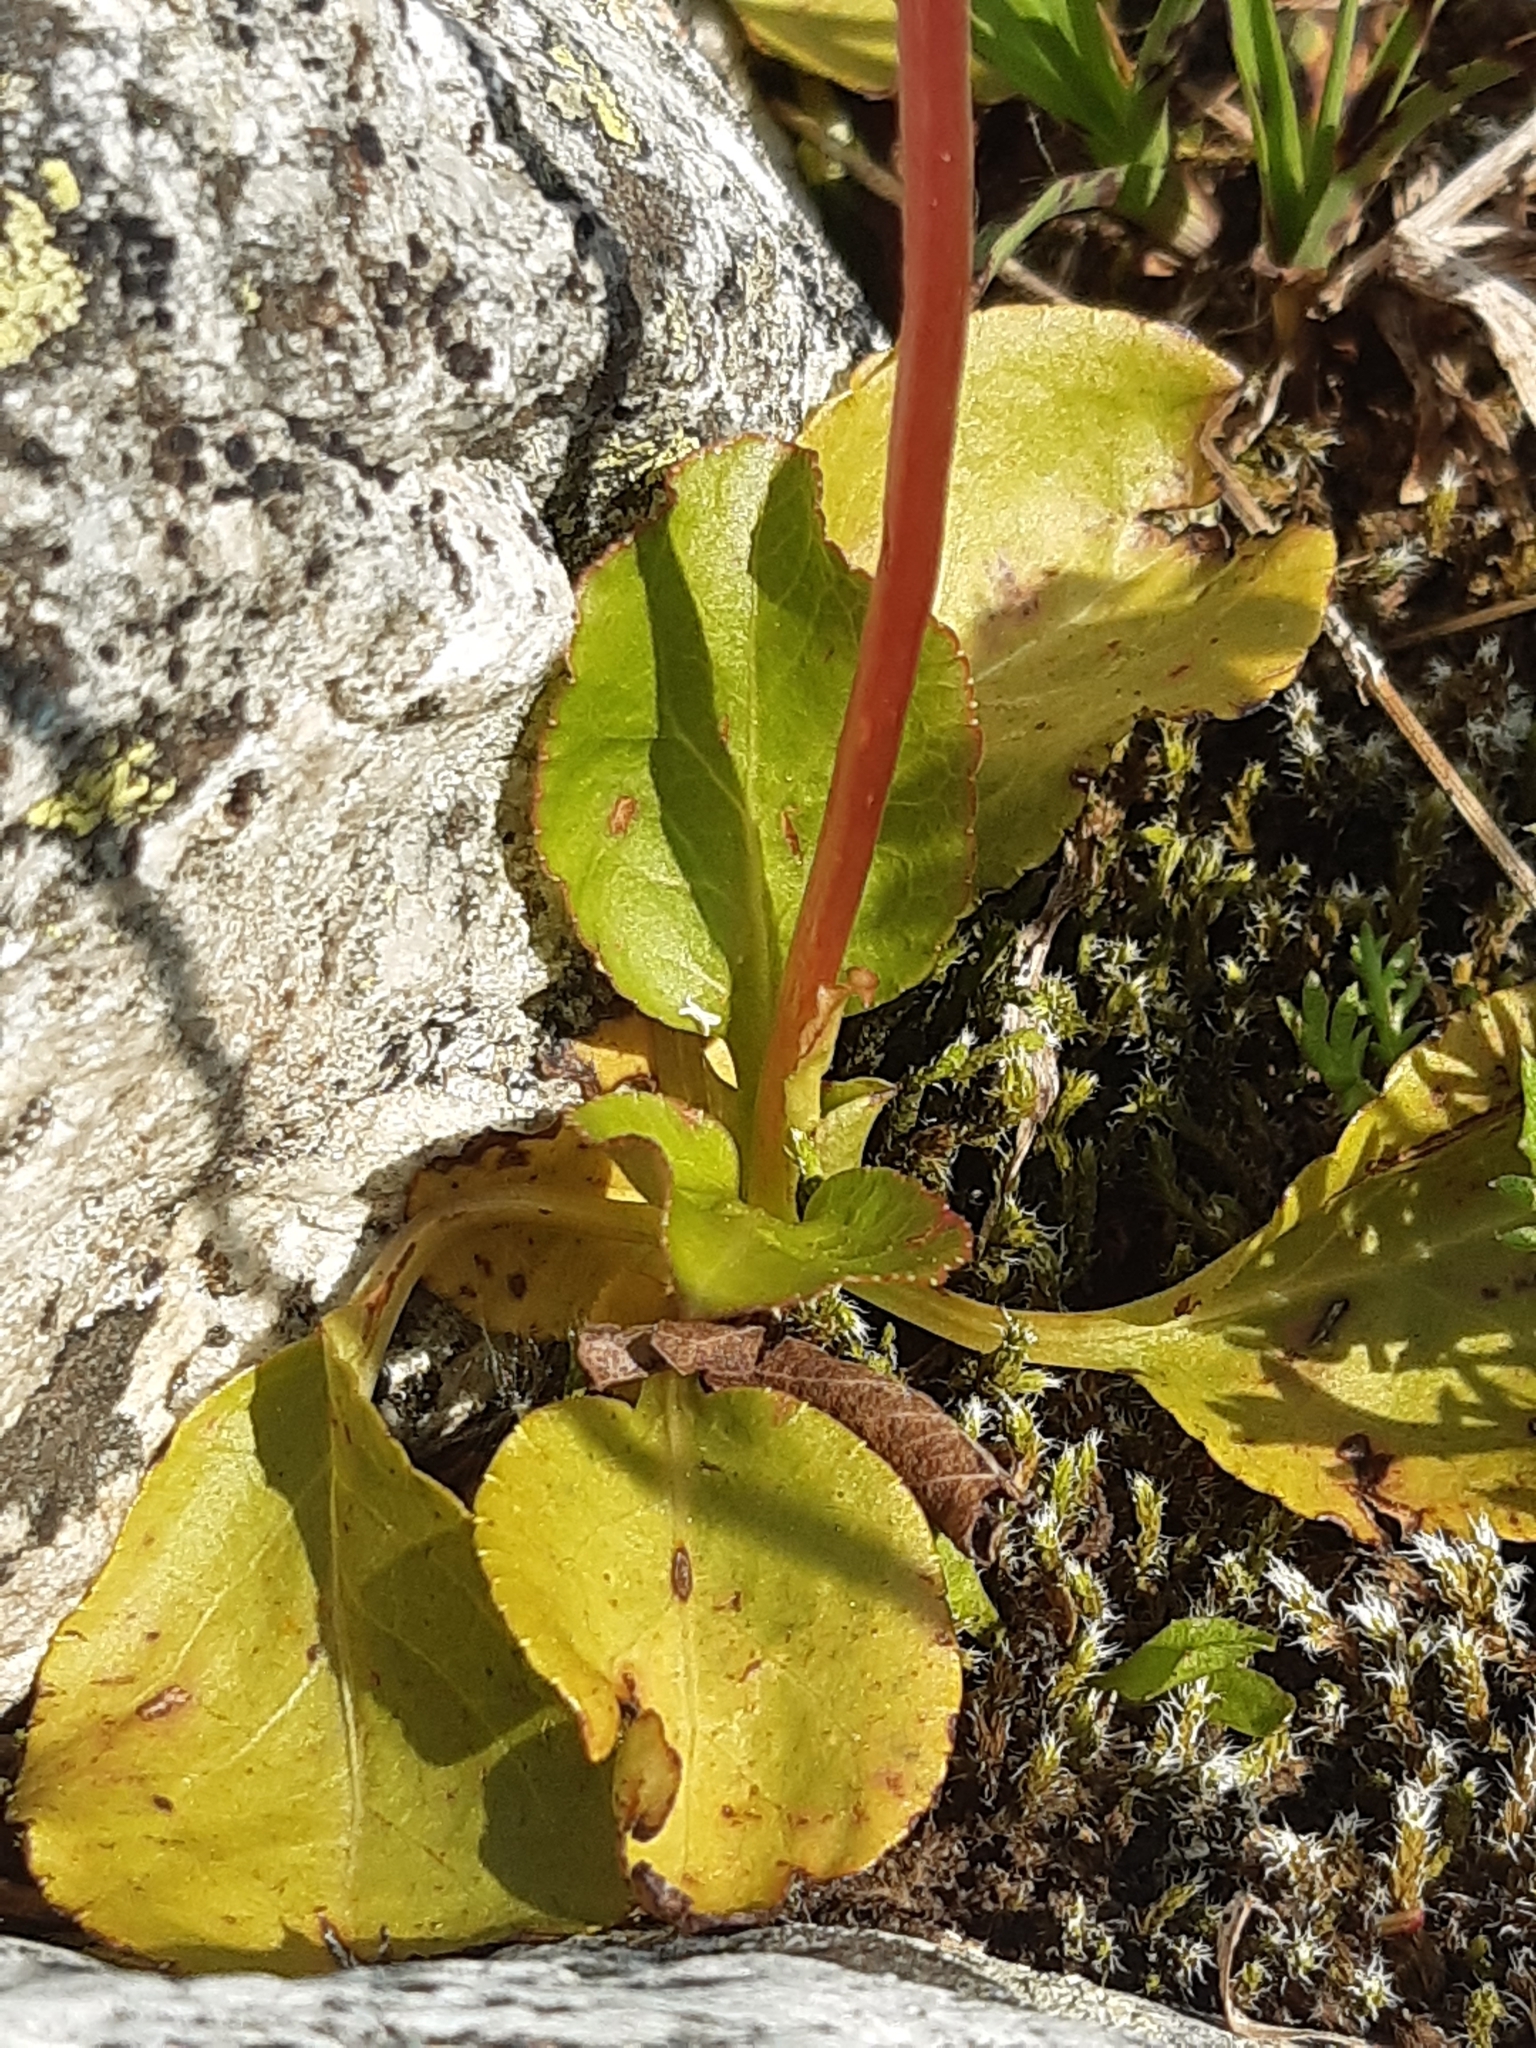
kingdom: Plantae
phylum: Tracheophyta
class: Magnoliopsida
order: Ericales
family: Ericaceae
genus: Pyrola
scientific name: Pyrola minor
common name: Common wintergreen
